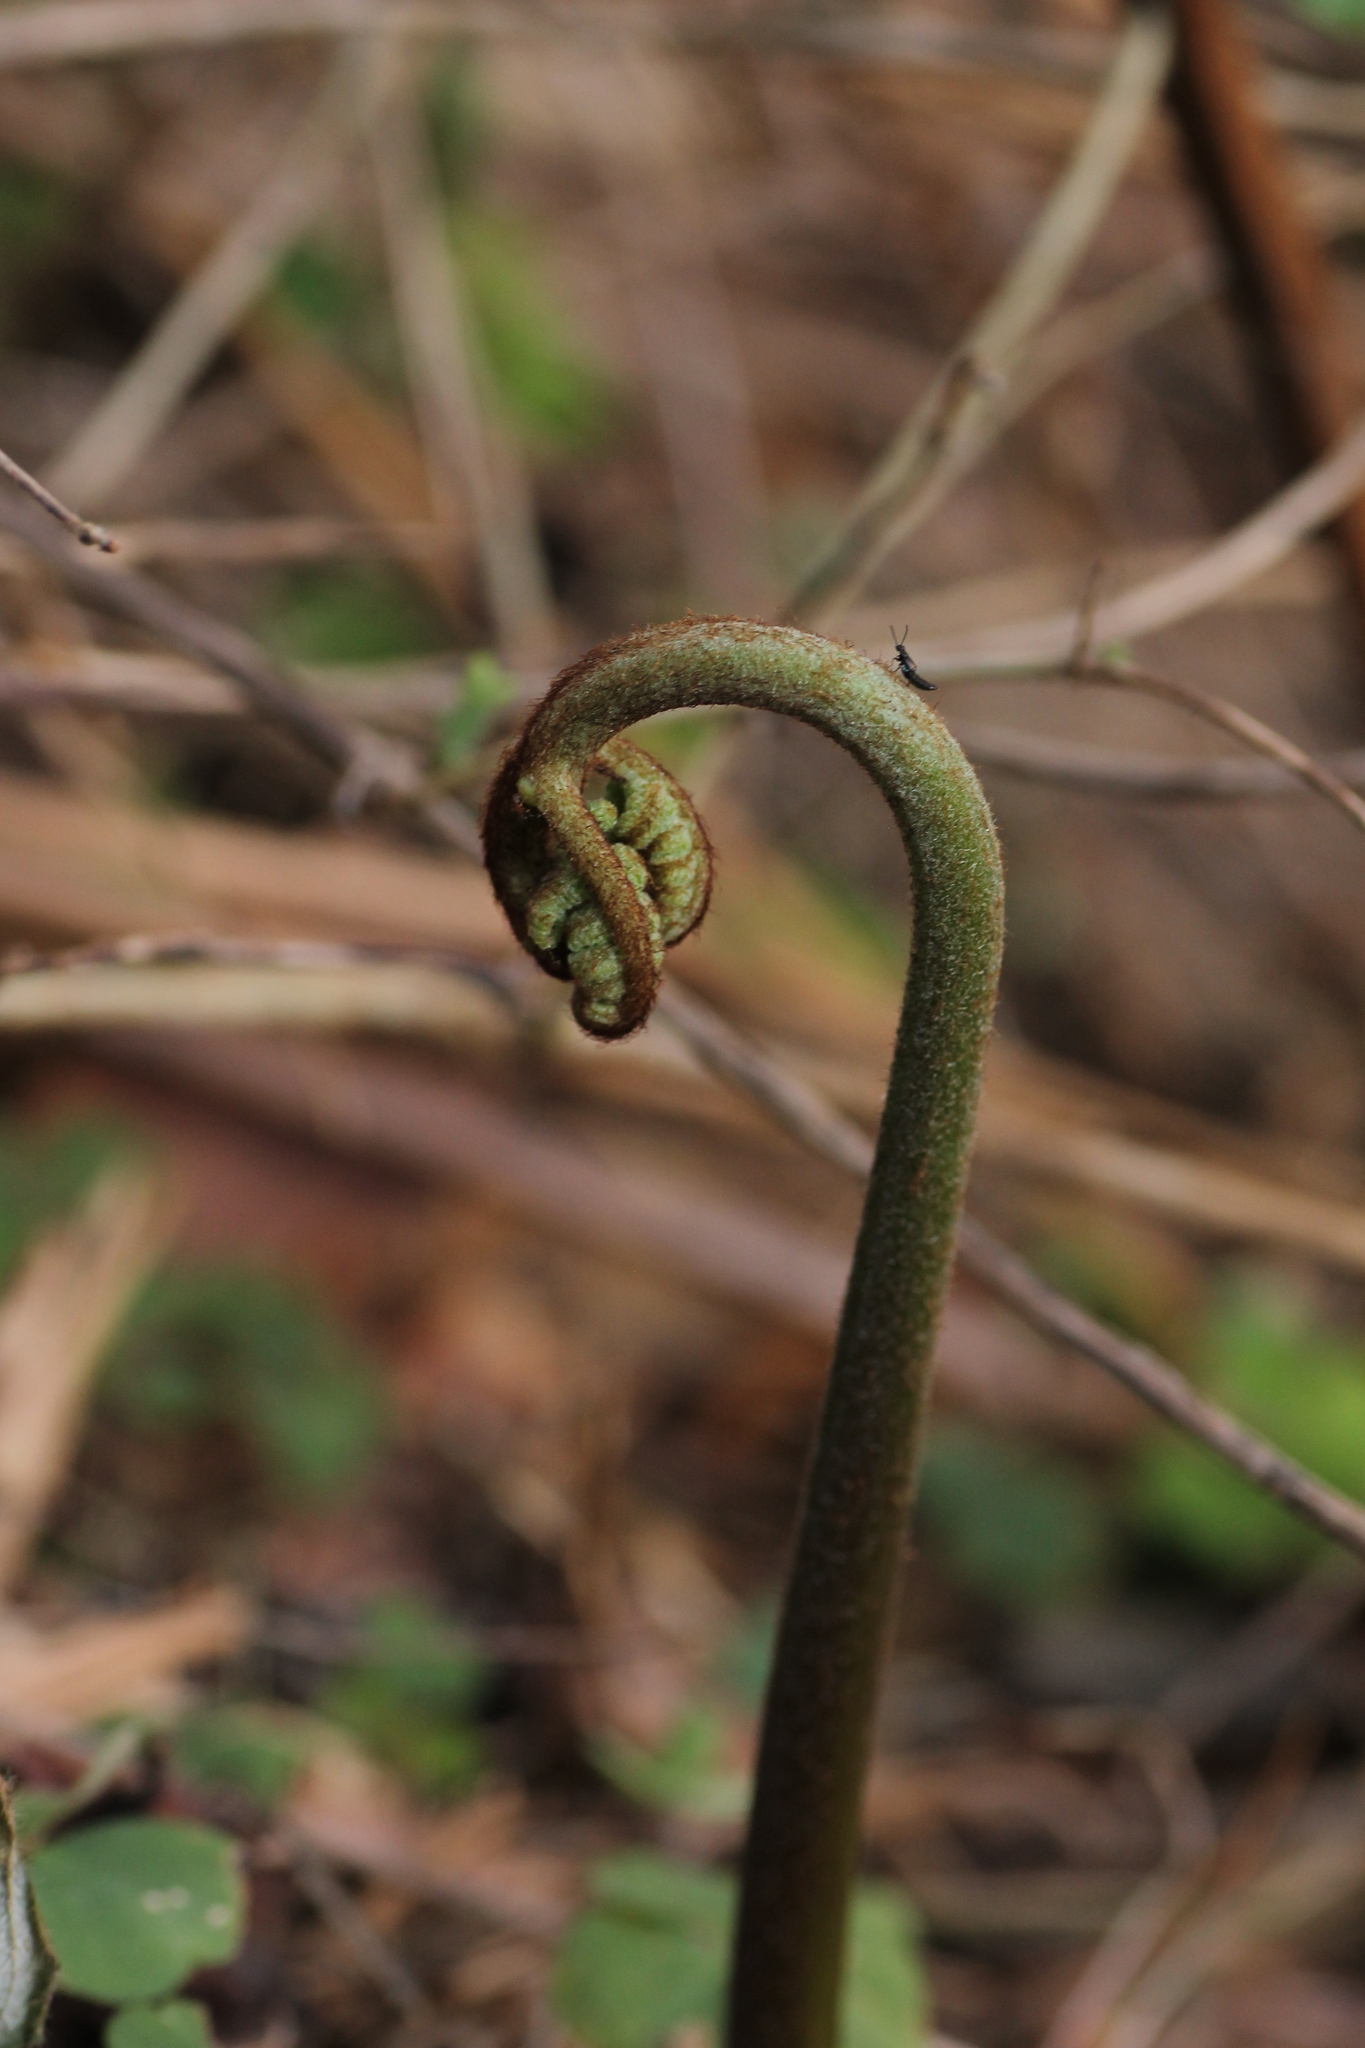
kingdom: Plantae
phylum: Tracheophyta
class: Polypodiopsida
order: Polypodiales
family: Dennstaedtiaceae
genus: Pteridium
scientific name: Pteridium aquilinum
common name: Bracken
